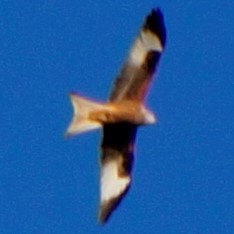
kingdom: Animalia
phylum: Chordata
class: Aves
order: Accipitriformes
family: Accipitridae
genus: Milvus
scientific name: Milvus milvus
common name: Red kite
